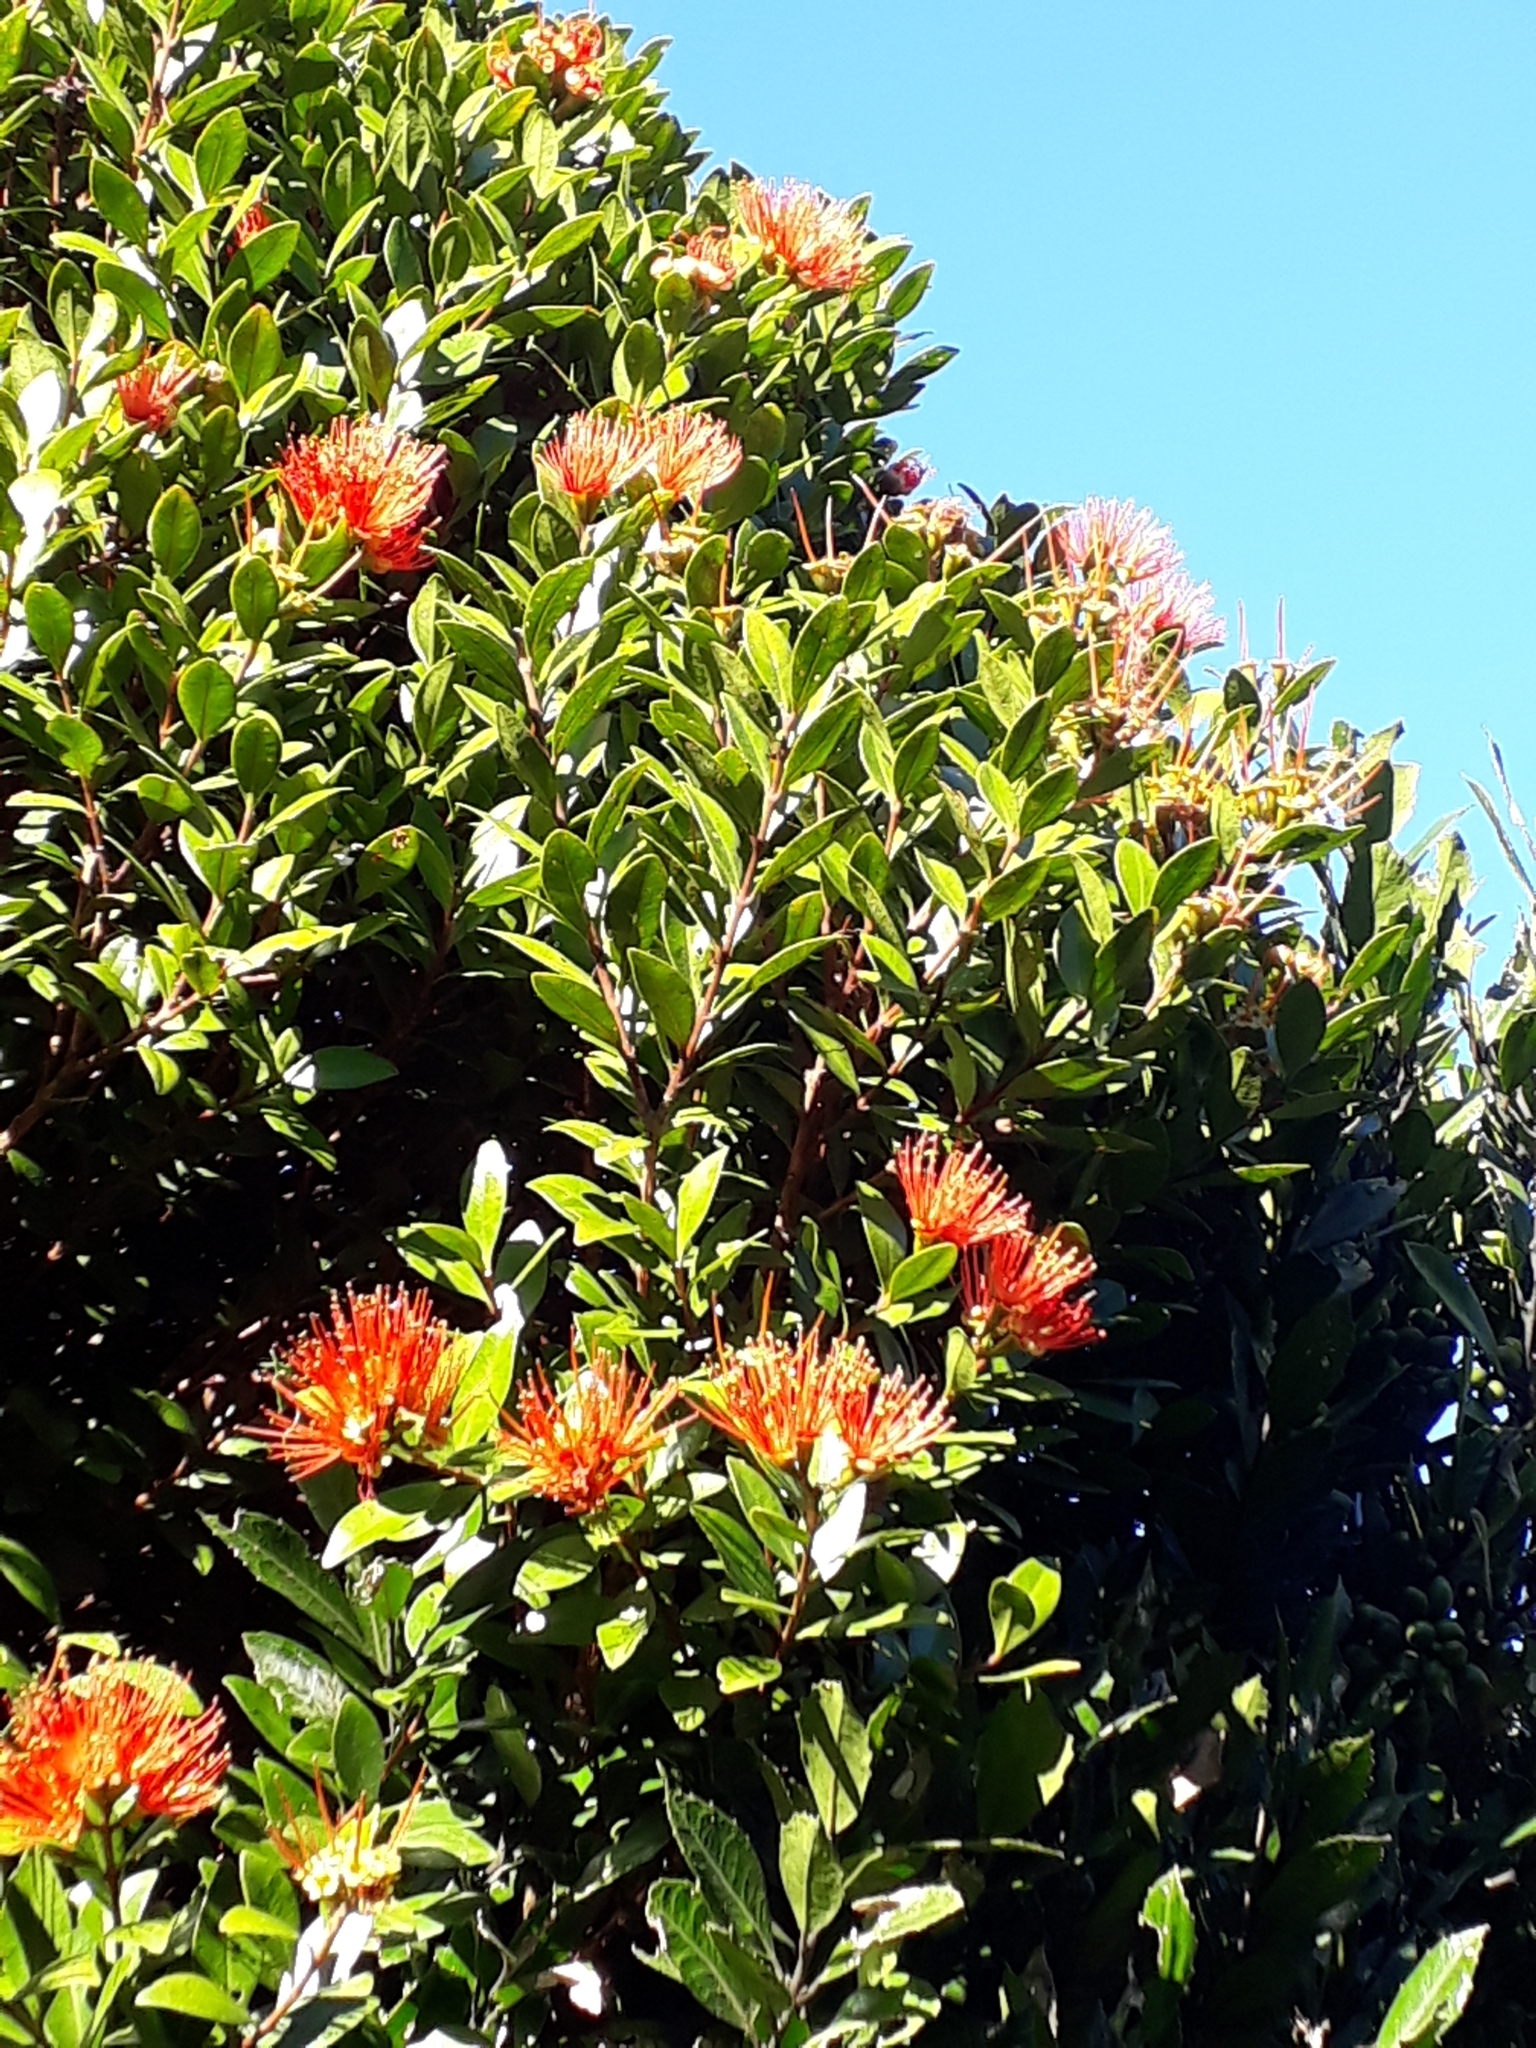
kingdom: Plantae
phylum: Tracheophyta
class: Magnoliopsida
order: Myrtales
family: Myrtaceae
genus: Metrosideros
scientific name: Metrosideros fulgens
